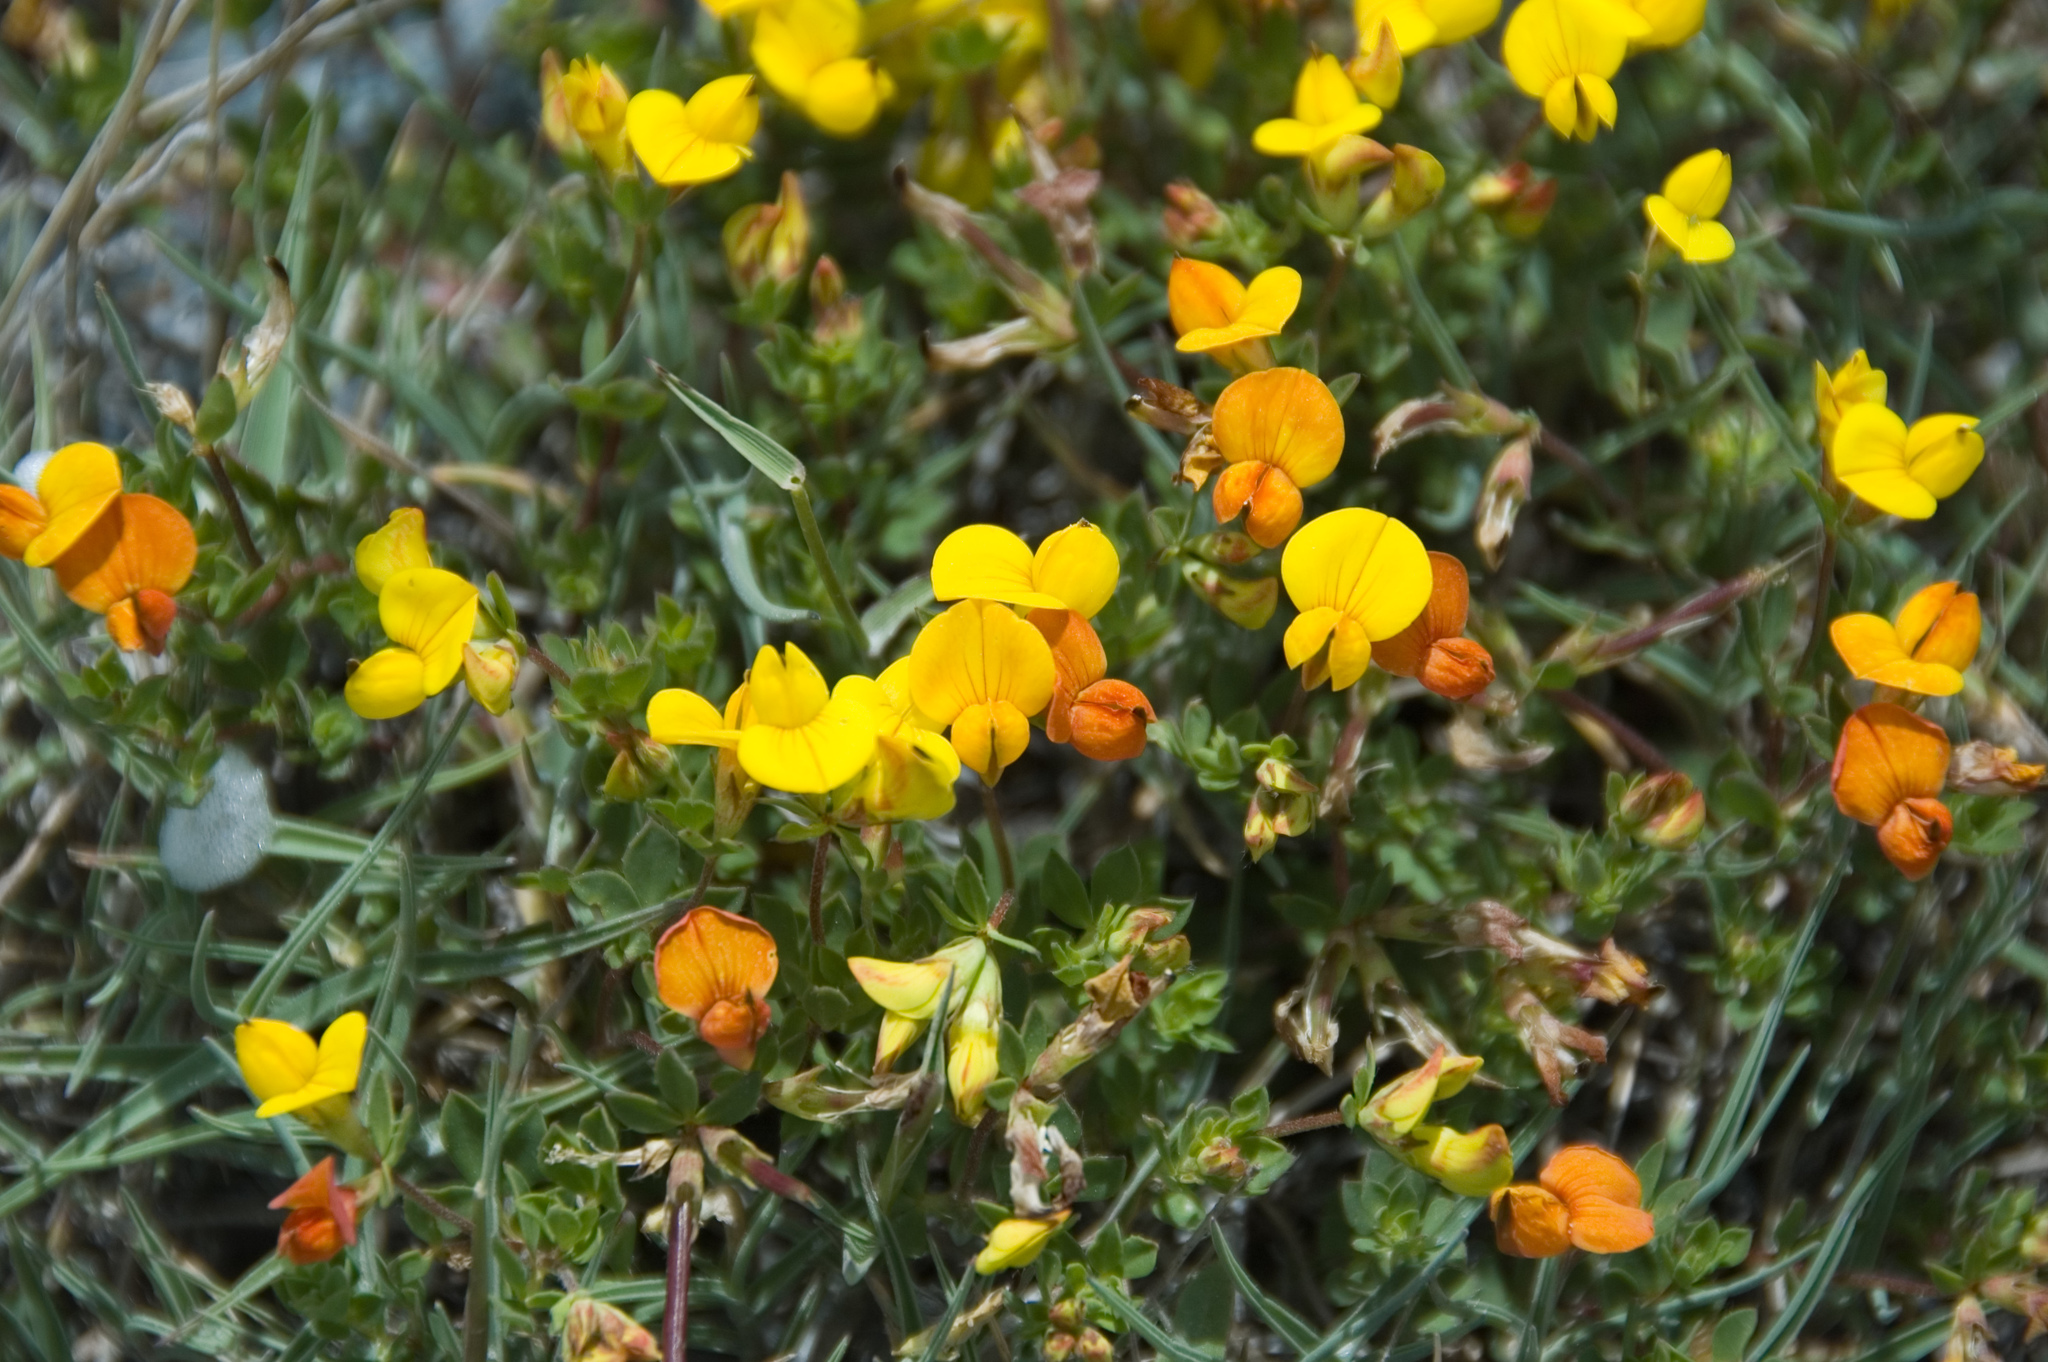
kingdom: Plantae
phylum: Tracheophyta
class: Magnoliopsida
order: Fabales
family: Fabaceae
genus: Lotus
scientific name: Lotus alpinus
